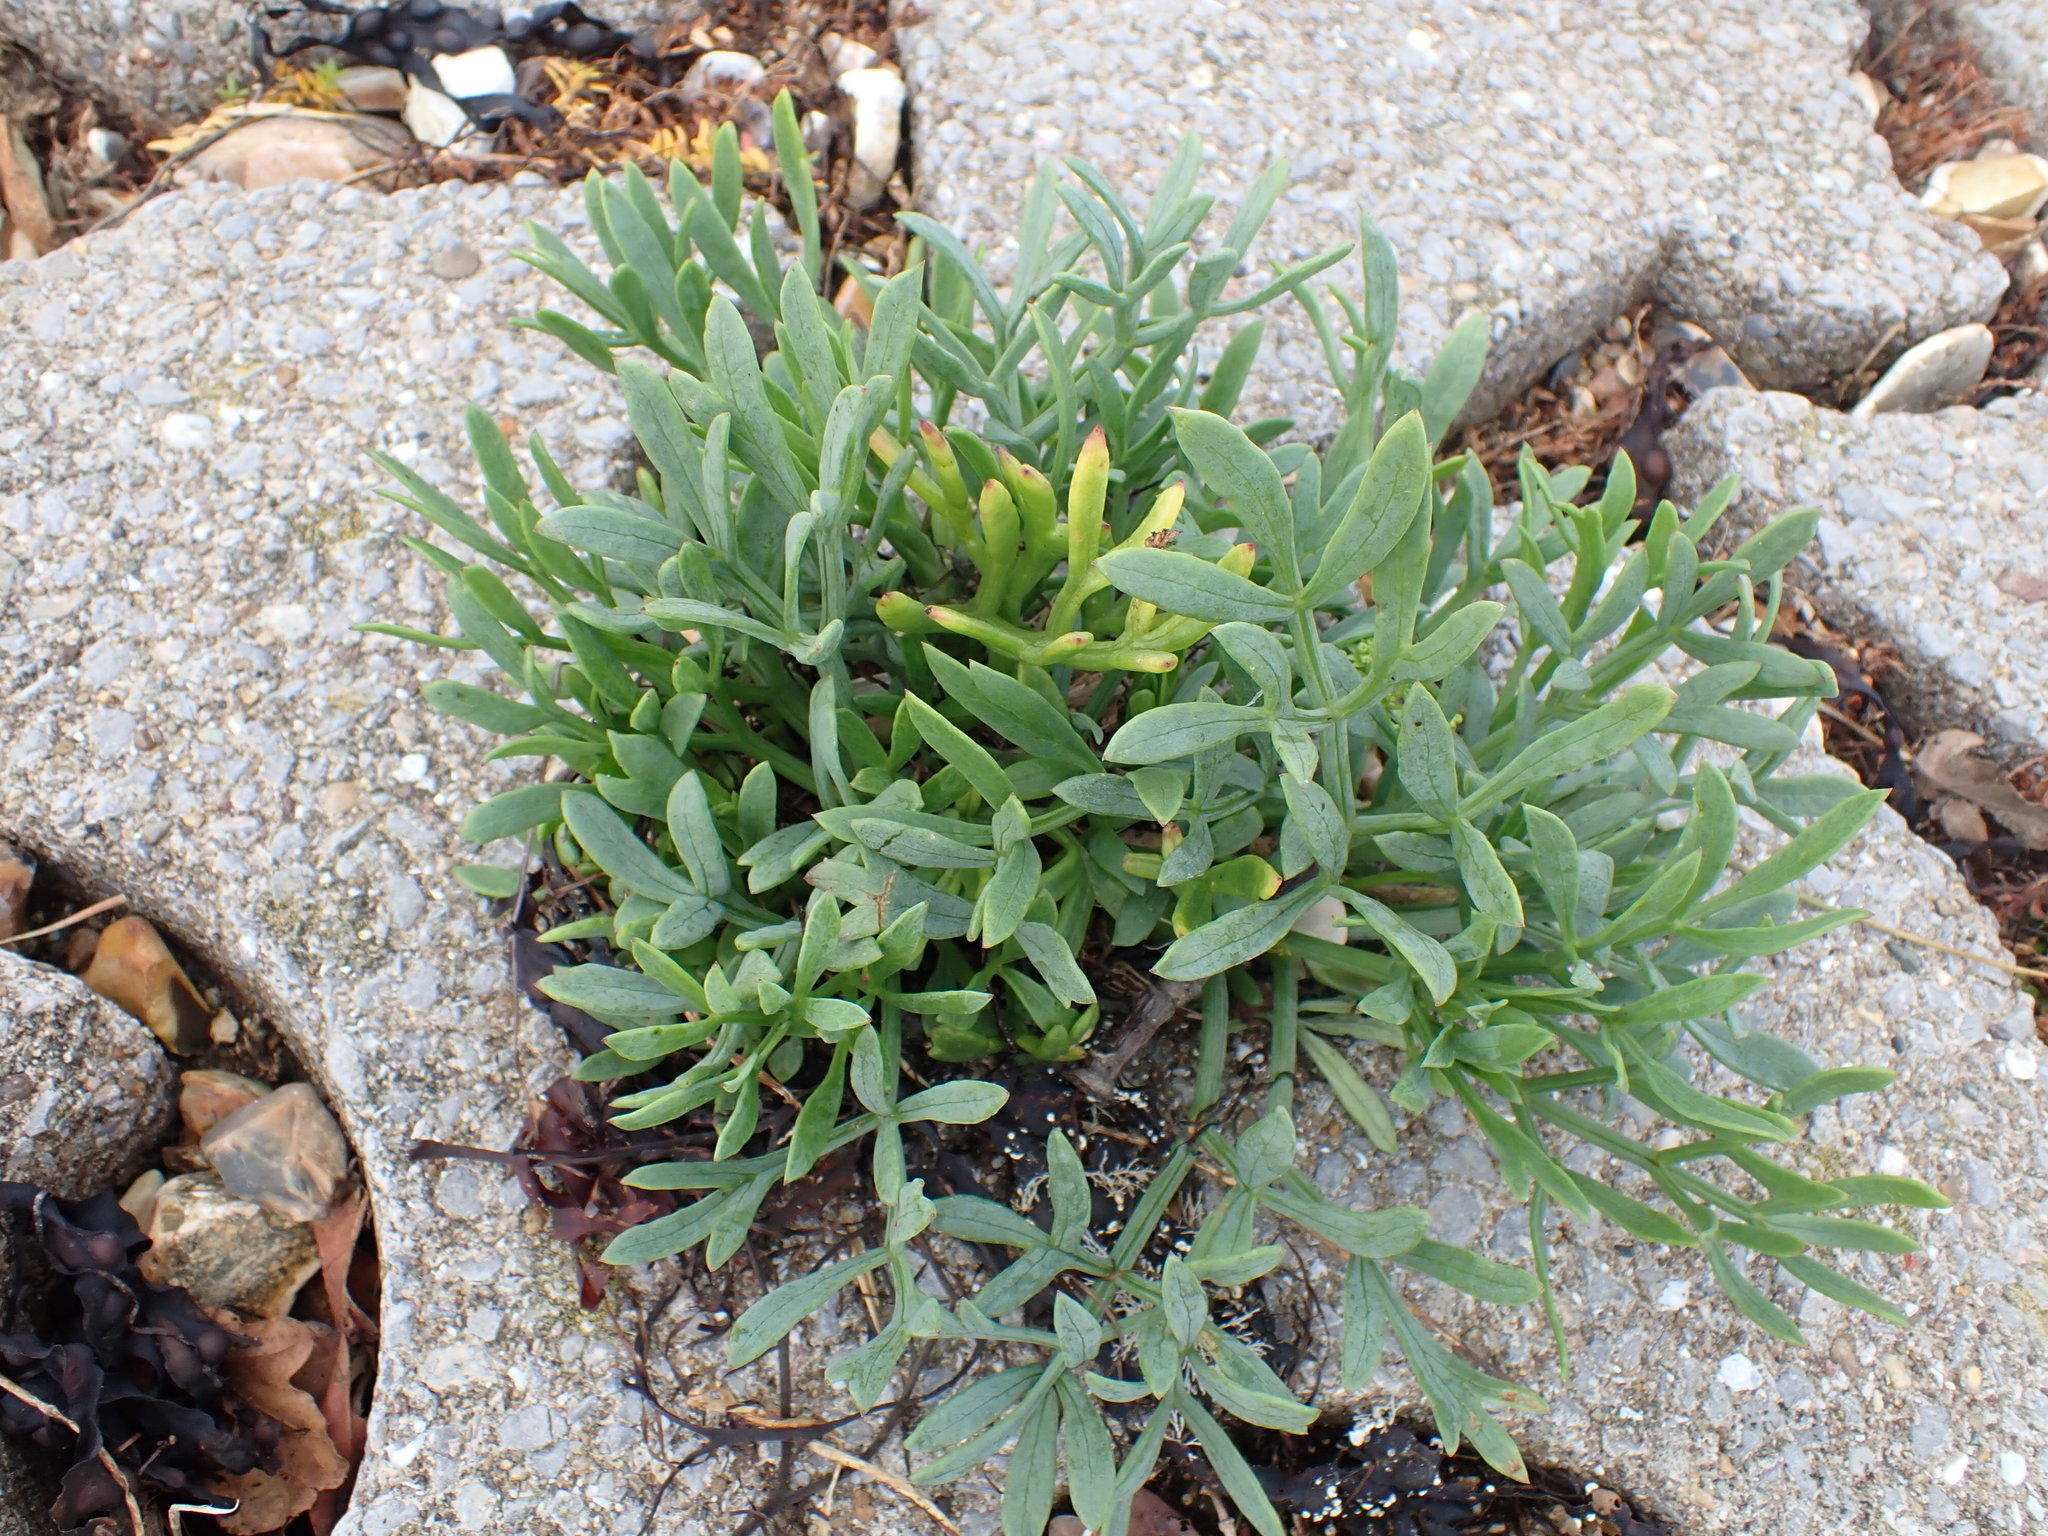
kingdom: Plantae
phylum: Tracheophyta
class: Magnoliopsida
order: Apiales
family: Apiaceae
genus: Crithmum
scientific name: Crithmum maritimum
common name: Rock samphire
